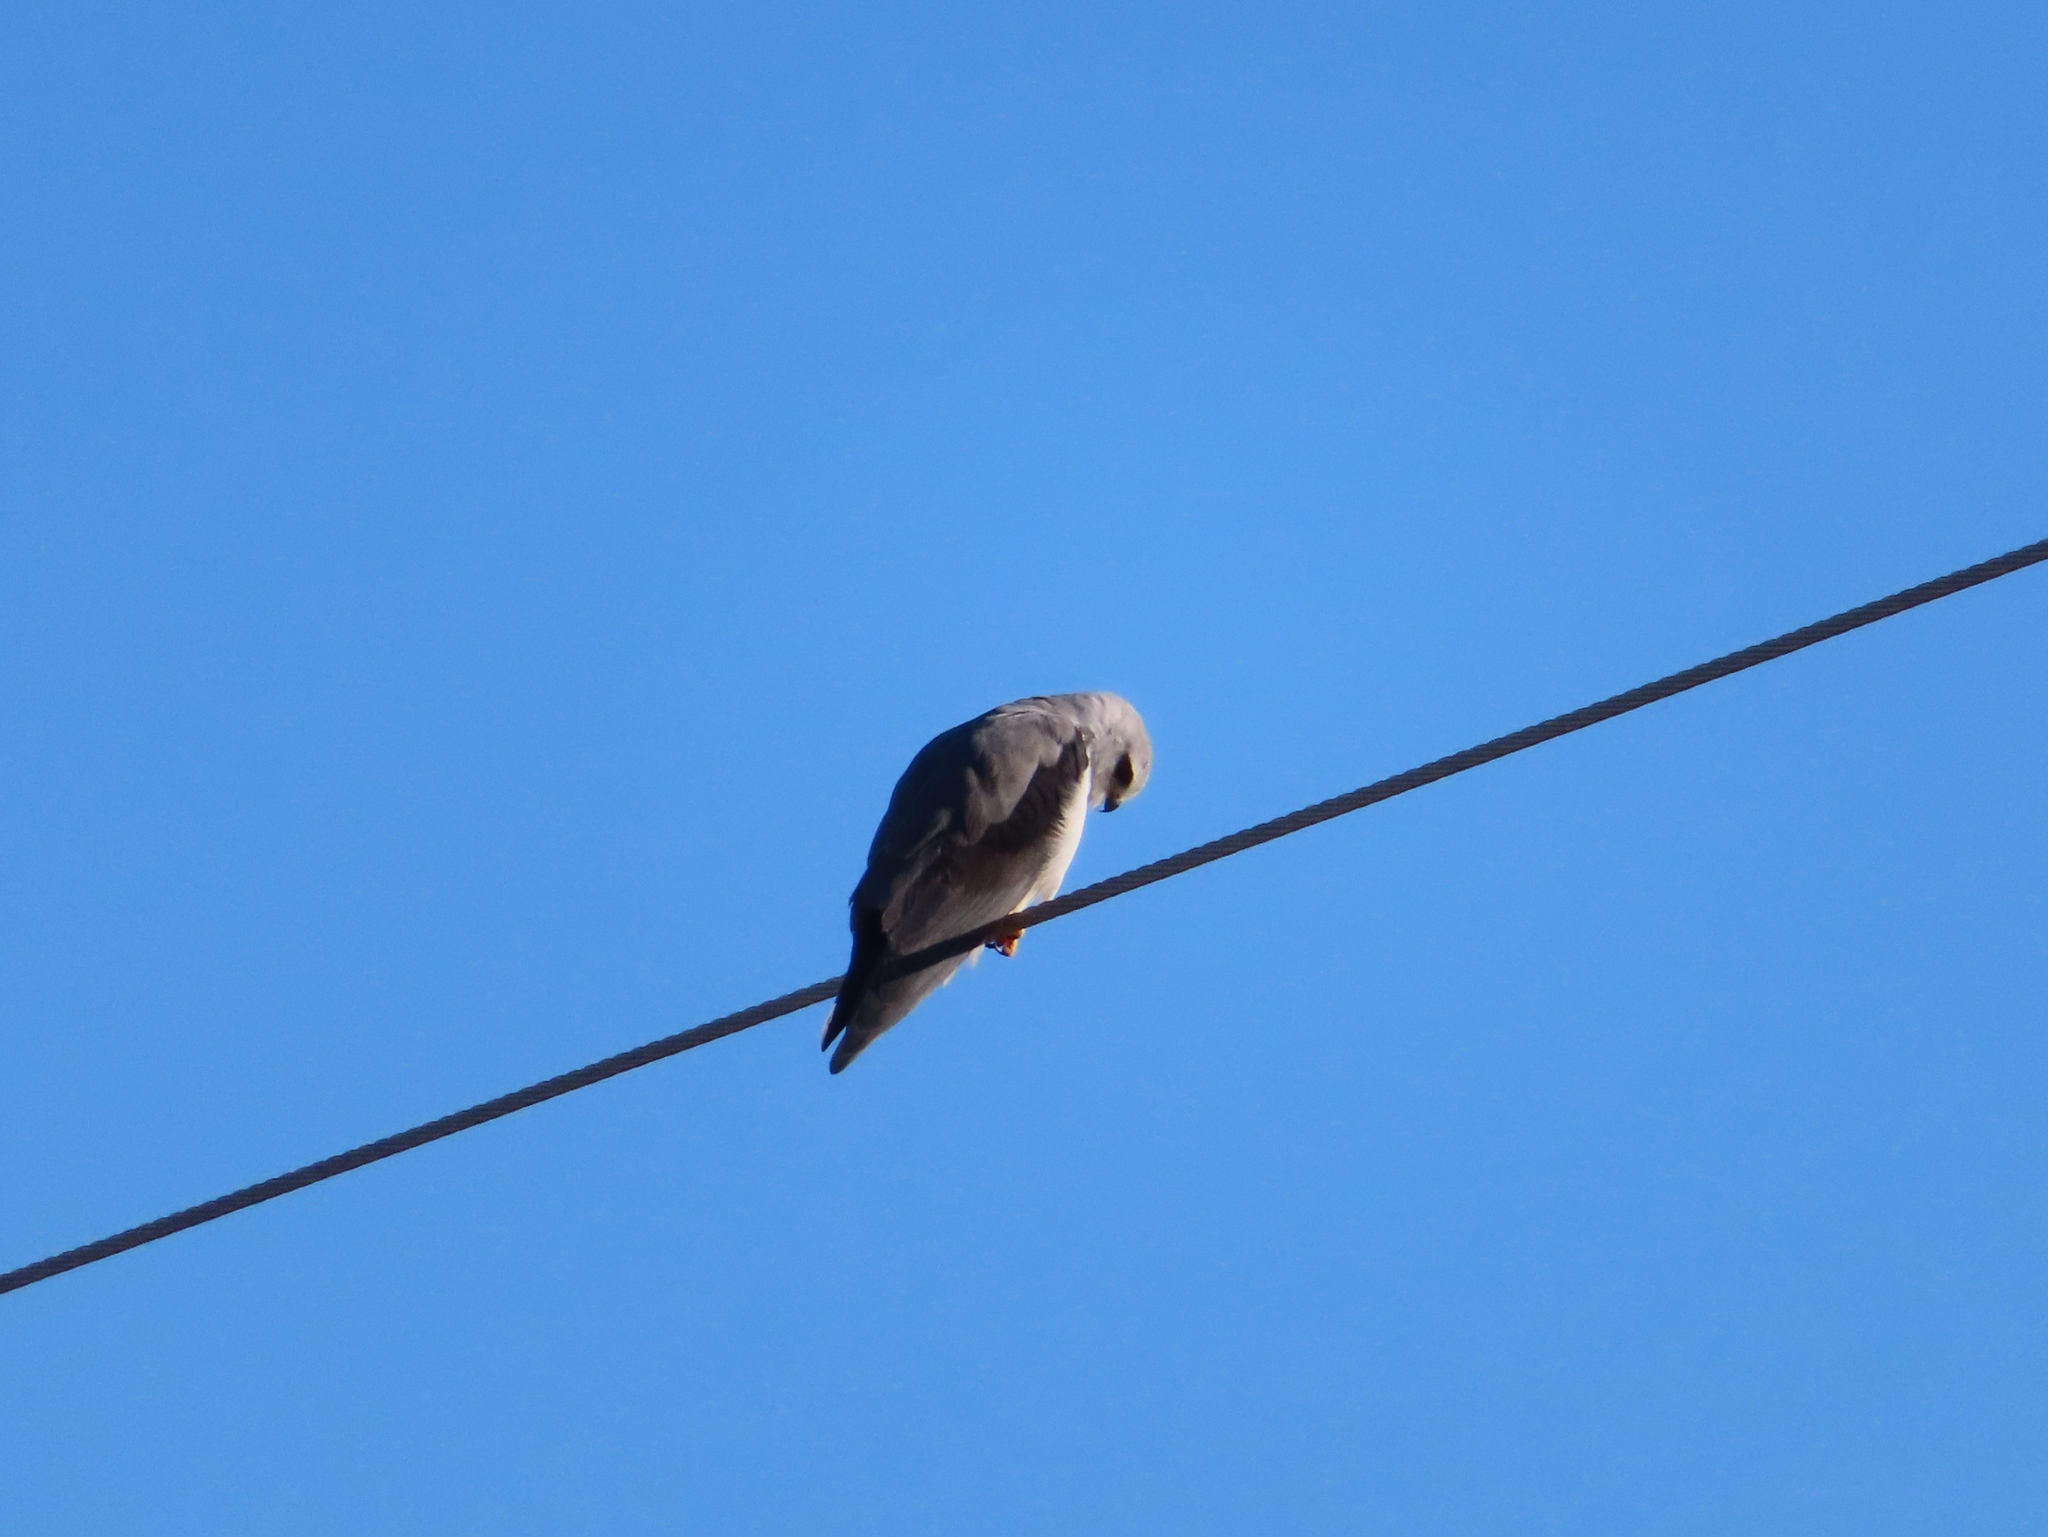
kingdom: Animalia
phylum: Chordata
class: Aves
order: Accipitriformes
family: Accipitridae
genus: Elanus
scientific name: Elanus caeruleus
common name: Black-winged kite
